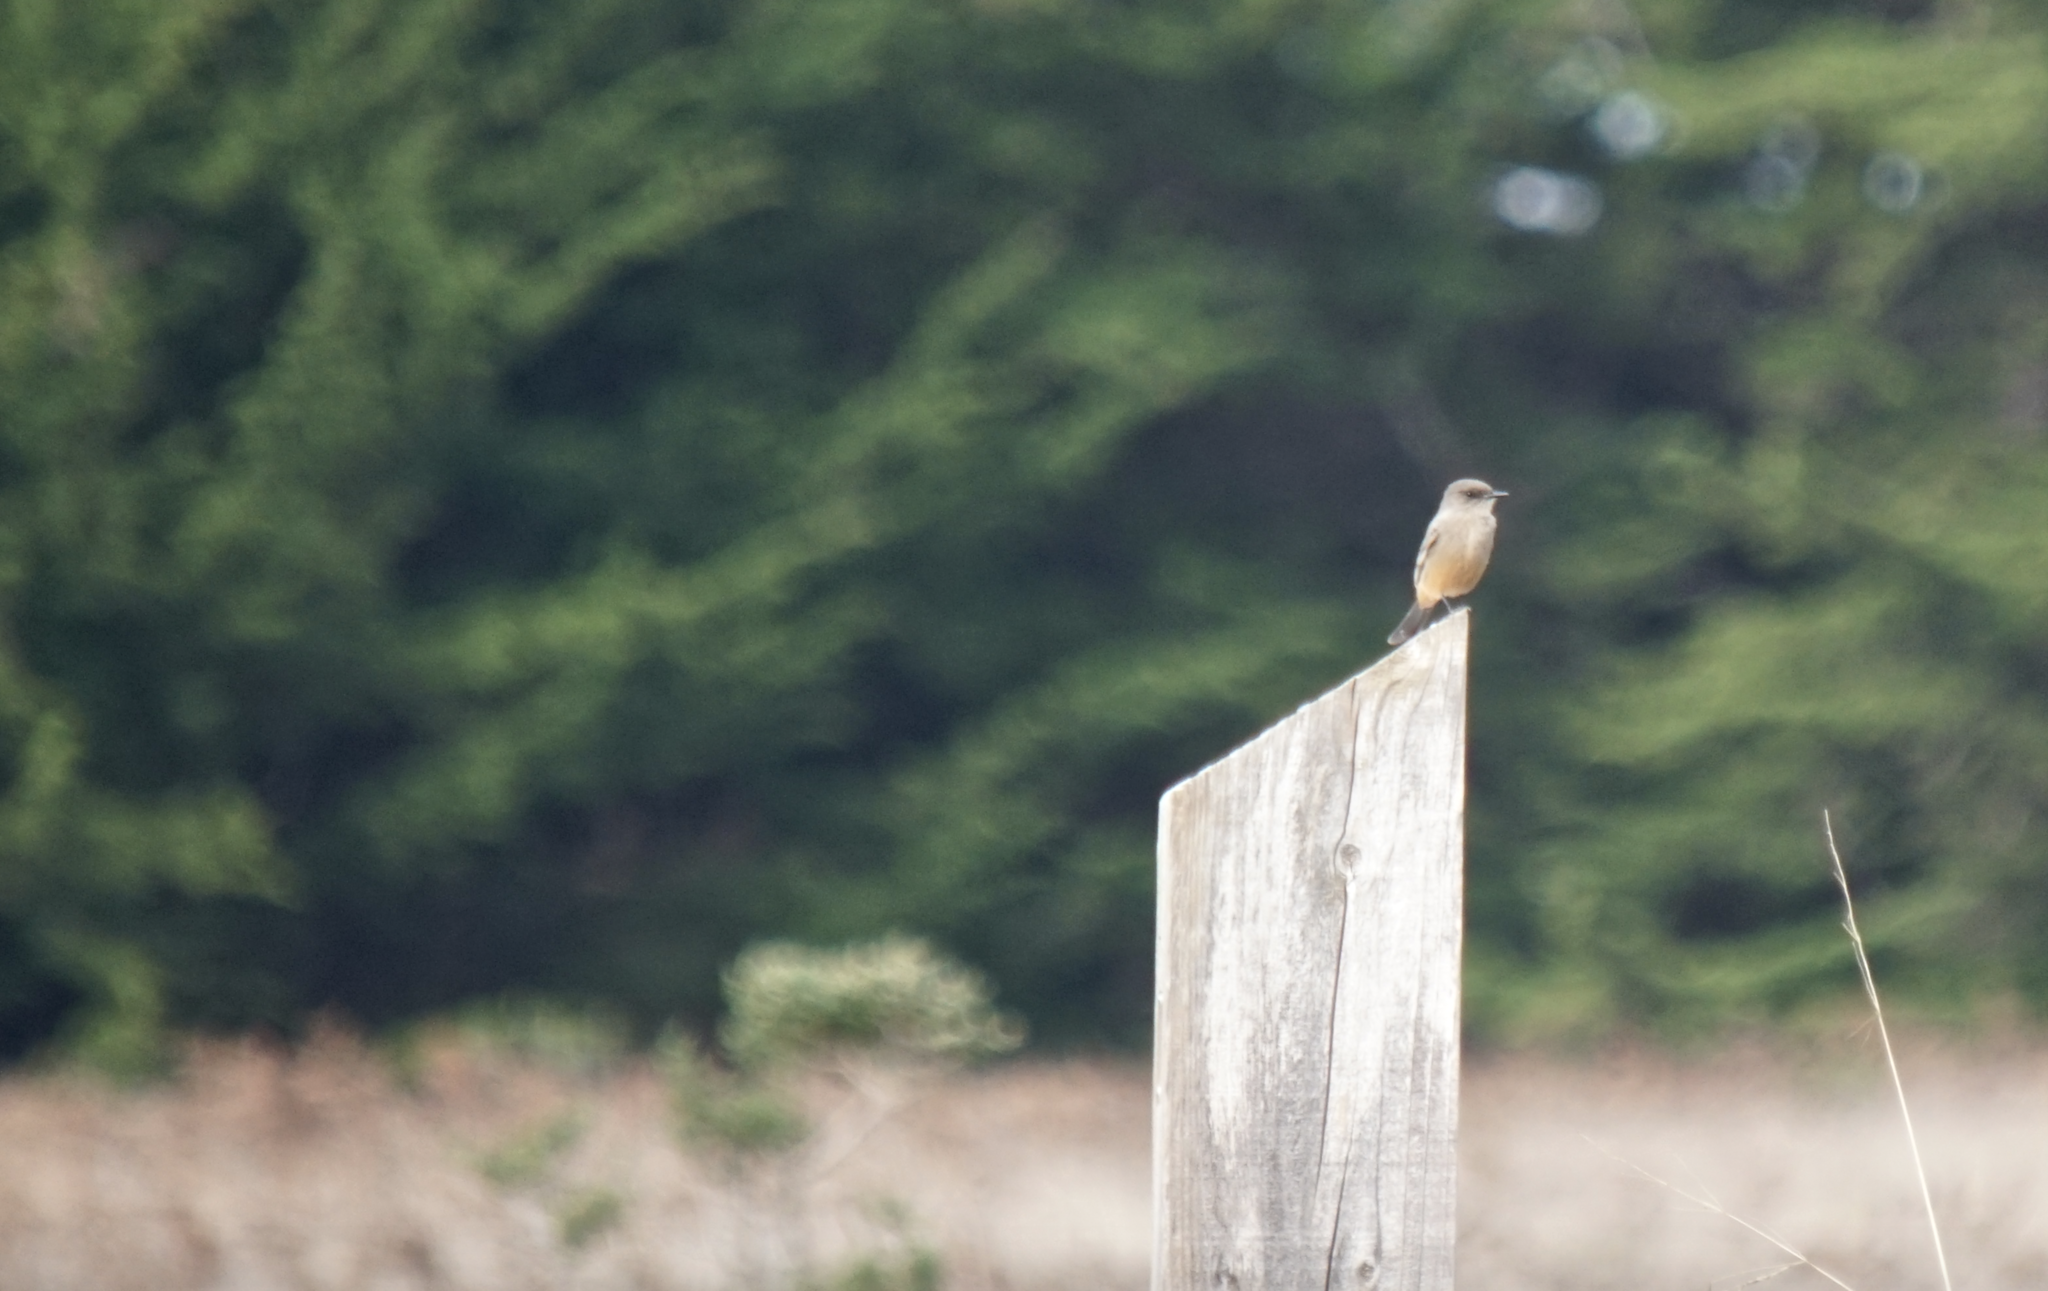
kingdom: Animalia
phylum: Chordata
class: Aves
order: Passeriformes
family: Tyrannidae
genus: Sayornis
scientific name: Sayornis saya
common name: Say's phoebe
